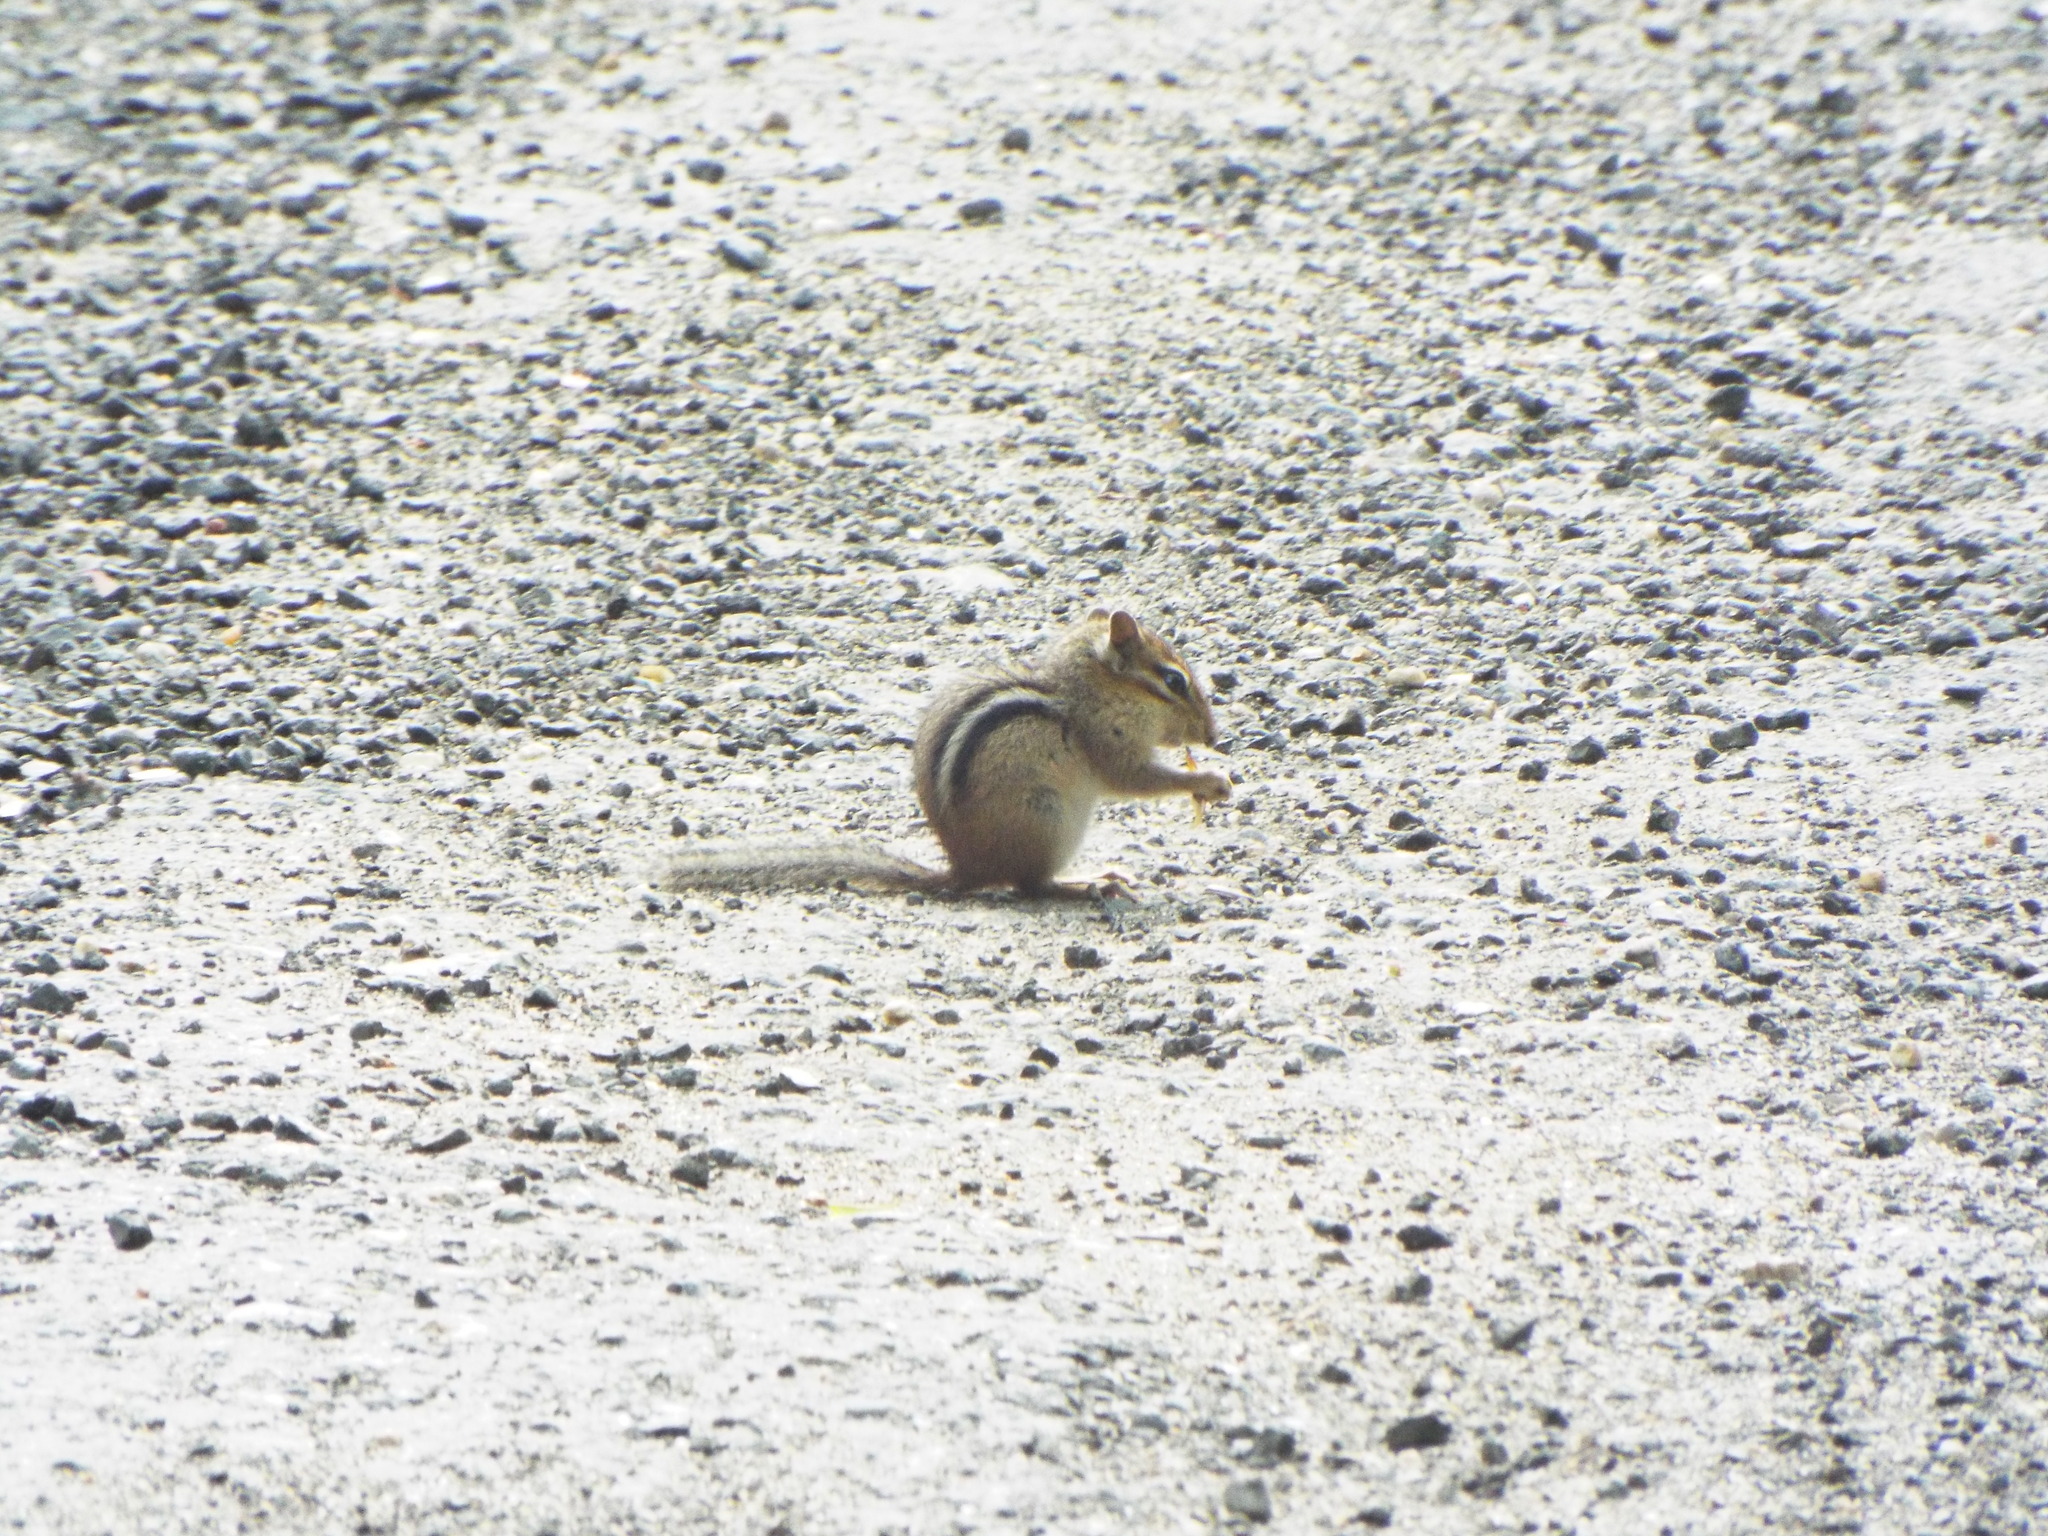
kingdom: Animalia
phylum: Chordata
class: Mammalia
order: Rodentia
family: Sciuridae
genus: Tamias
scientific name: Tamias striatus
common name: Eastern chipmunk
